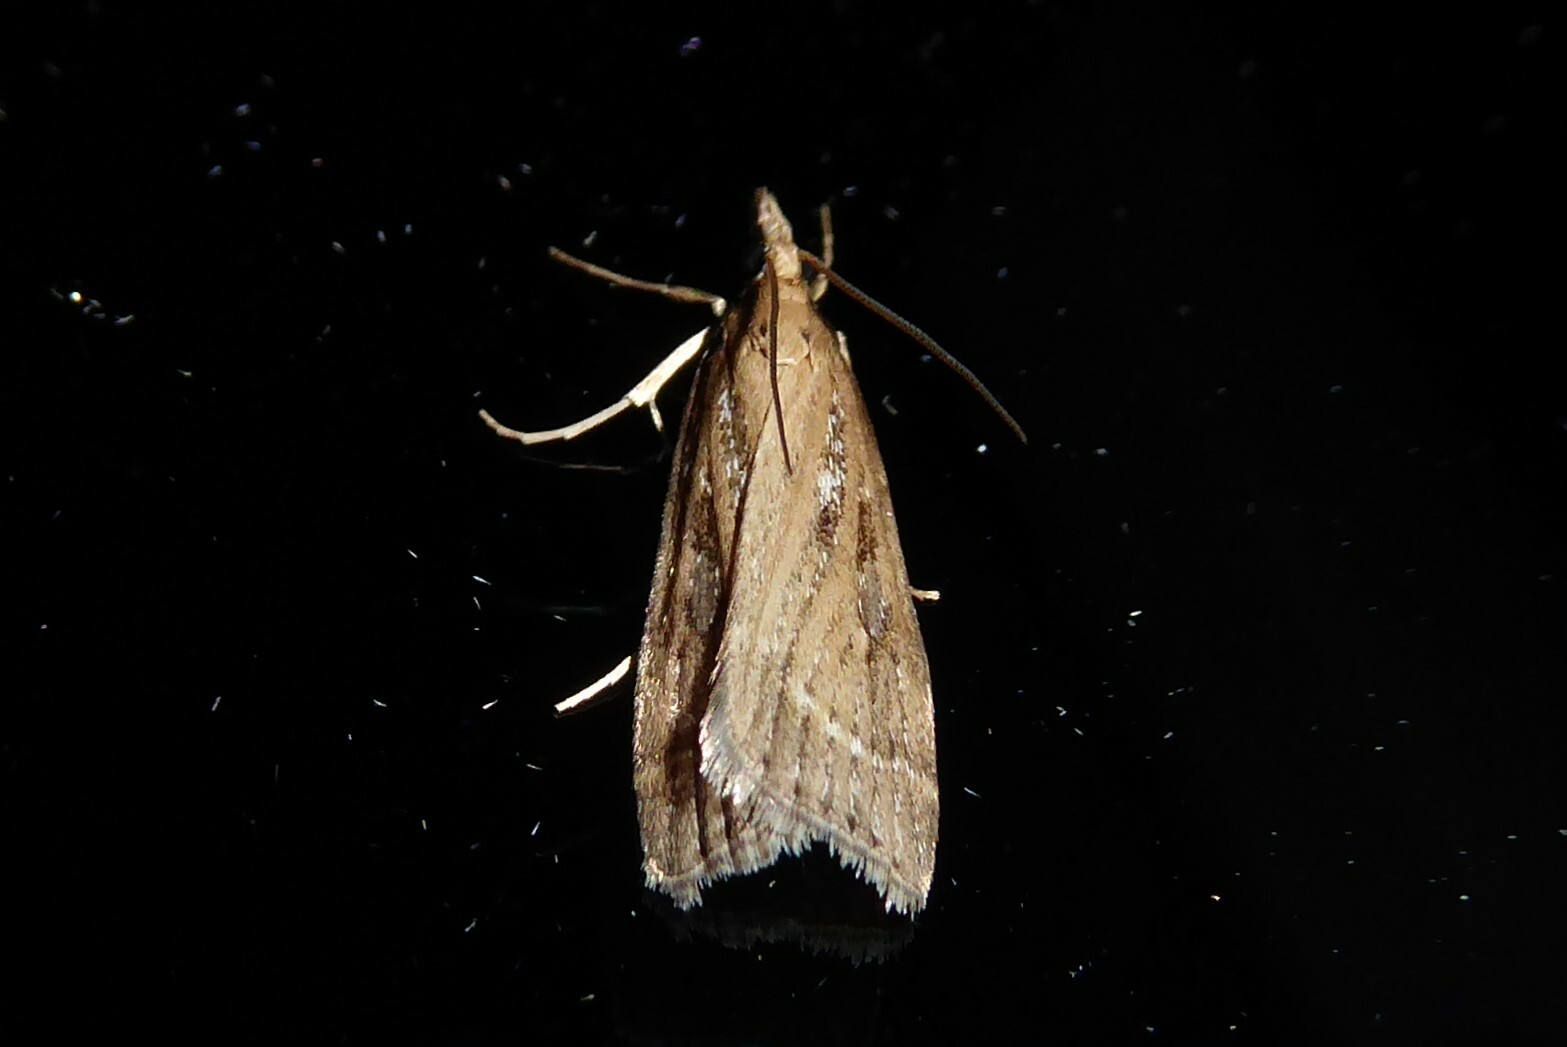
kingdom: Animalia
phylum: Arthropoda
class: Insecta
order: Lepidoptera
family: Crambidae
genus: Eudonia
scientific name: Eudonia octophora
